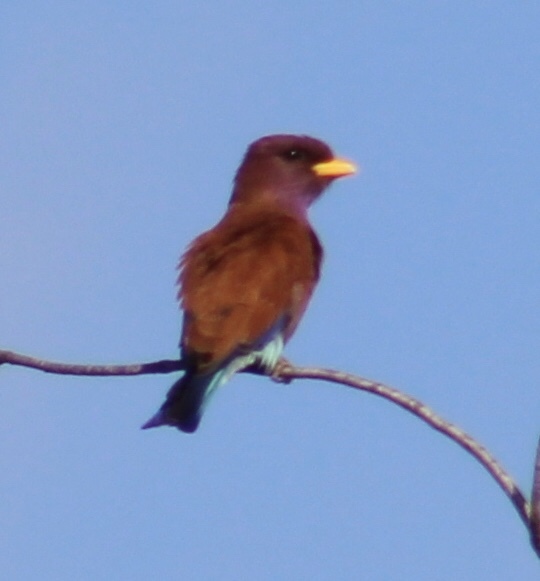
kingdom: Animalia
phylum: Chordata
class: Aves
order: Coraciiformes
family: Coraciidae
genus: Eurystomus
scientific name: Eurystomus glaucurus
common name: Broad-billed roller
